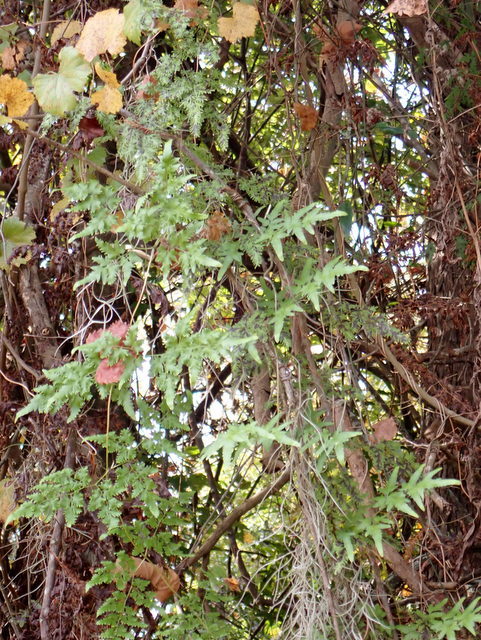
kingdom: Plantae
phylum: Tracheophyta
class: Polypodiopsida
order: Schizaeales
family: Lygodiaceae
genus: Lygodium
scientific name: Lygodium japonicum
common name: Japanese climbing fern
